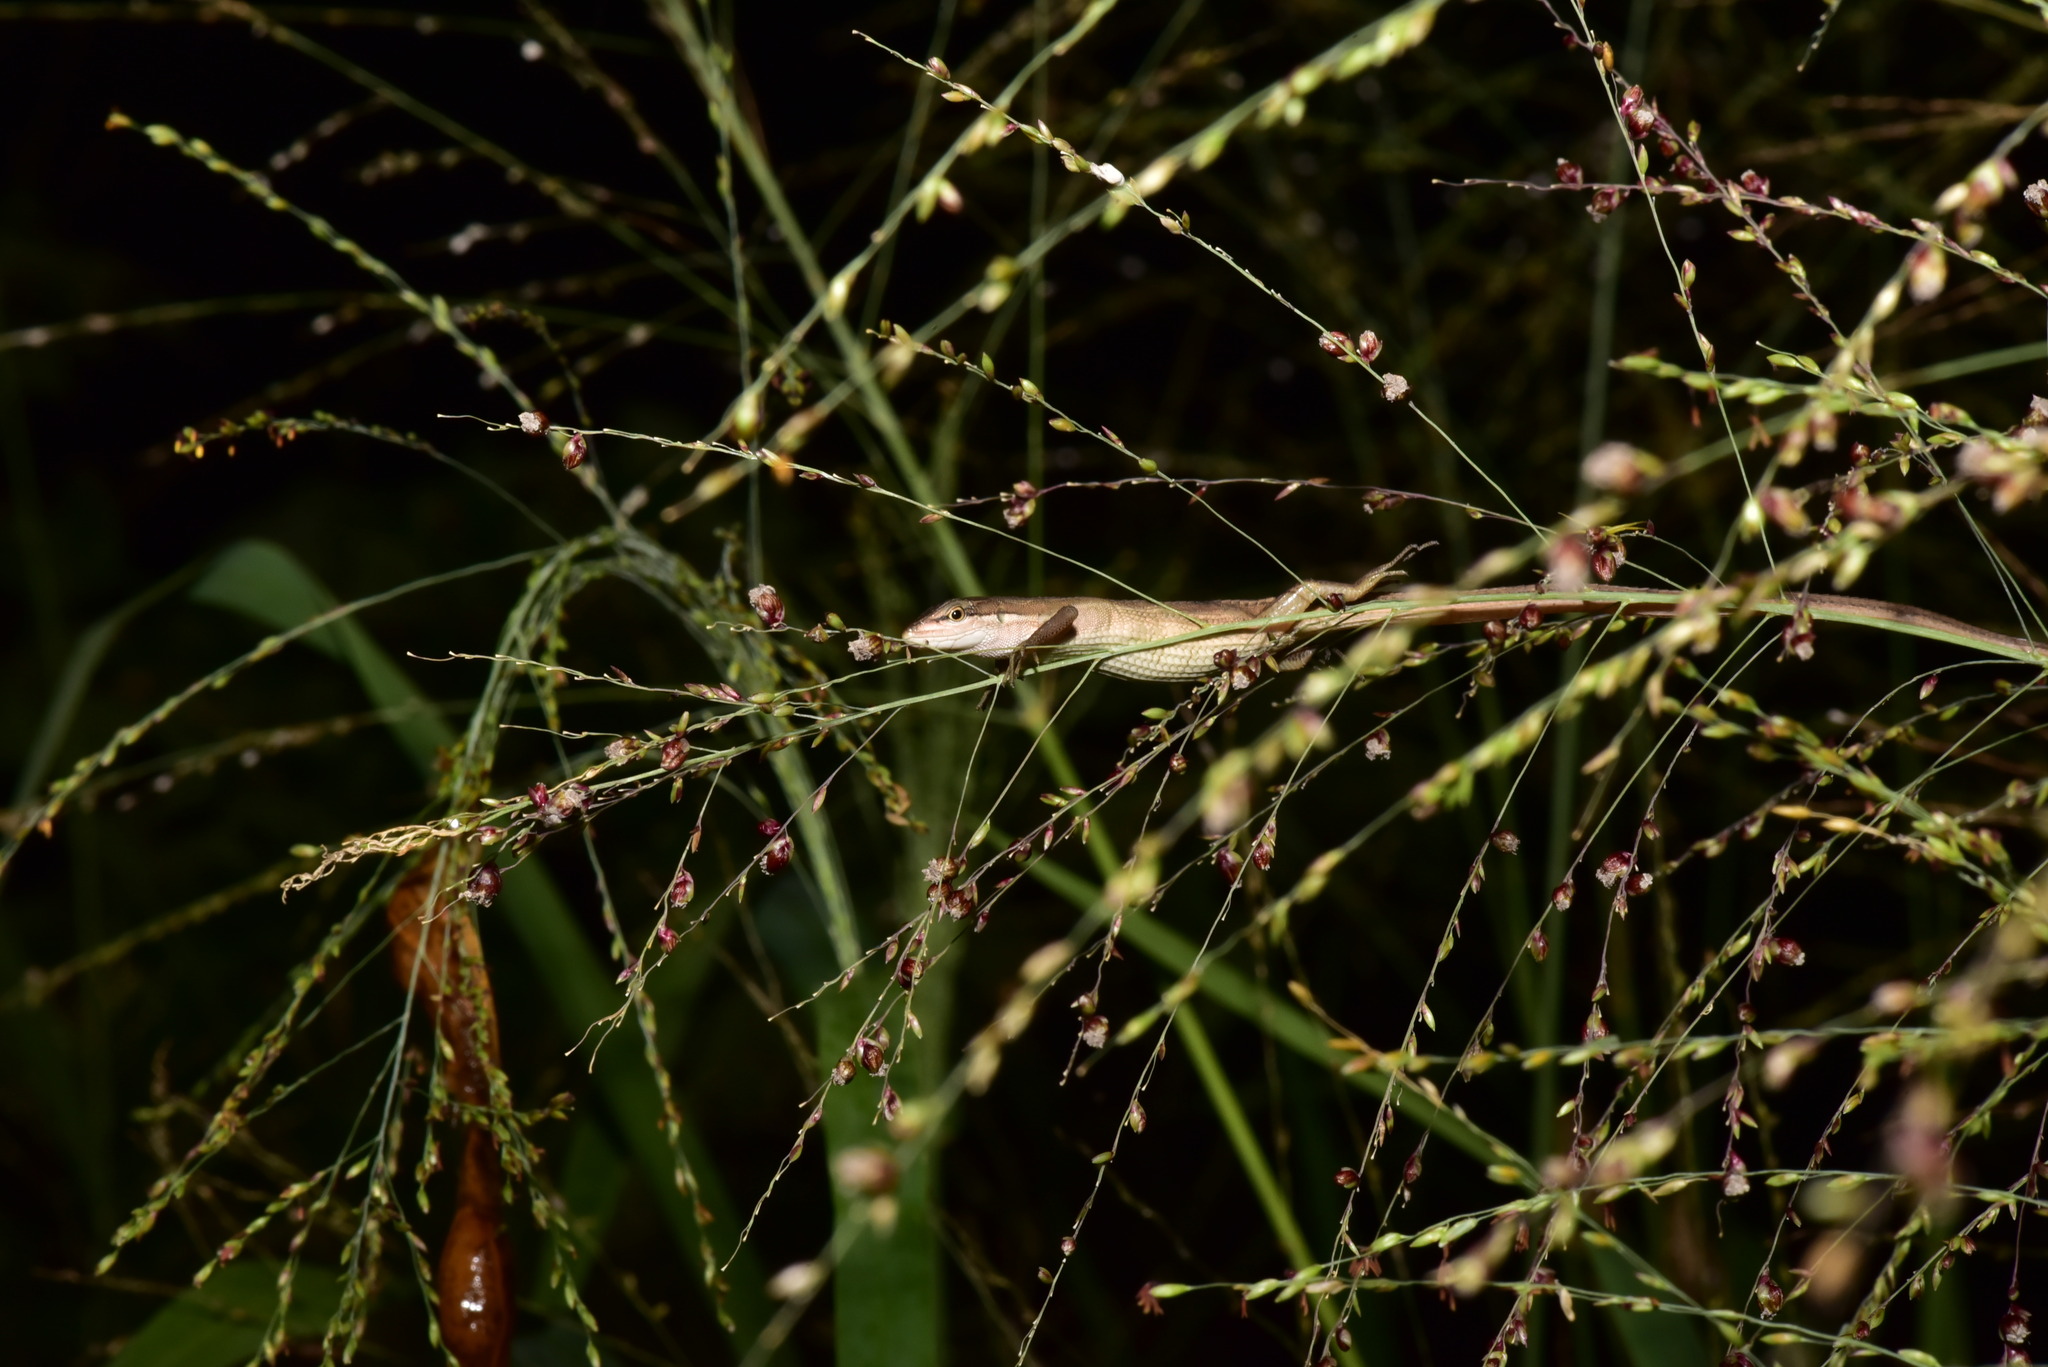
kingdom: Animalia
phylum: Chordata
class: Squamata
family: Lacertidae
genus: Takydromus
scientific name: Takydromus luyeanus
